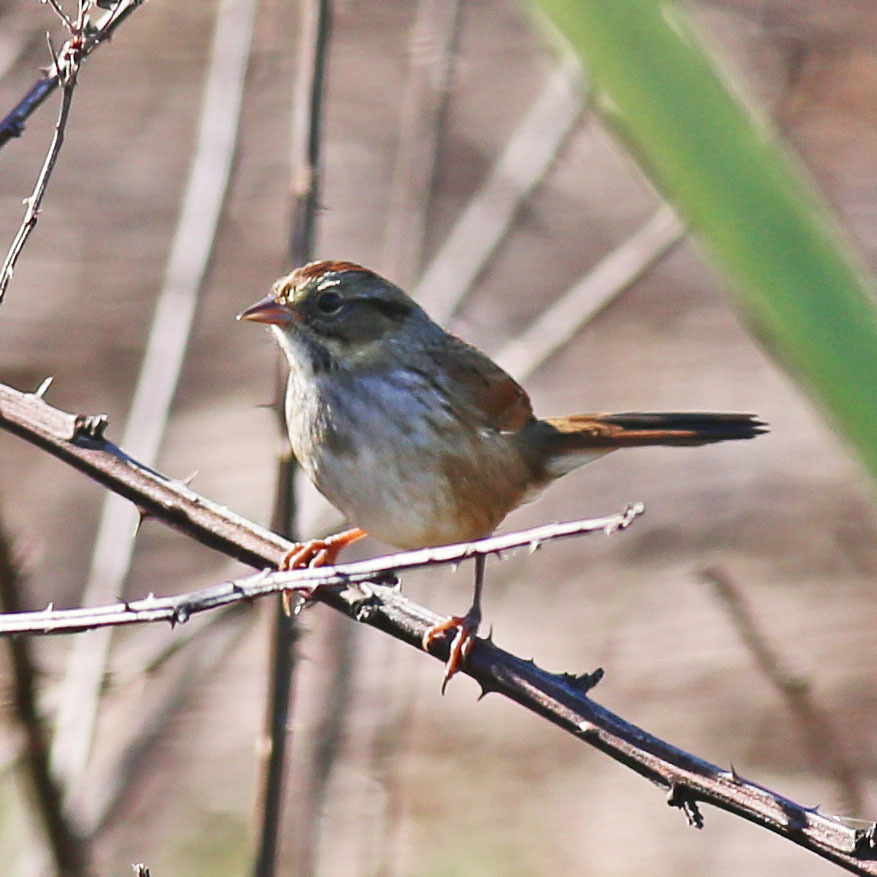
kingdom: Animalia
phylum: Chordata
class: Aves
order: Passeriformes
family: Passerellidae
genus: Melospiza
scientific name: Melospiza georgiana
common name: Swamp sparrow
